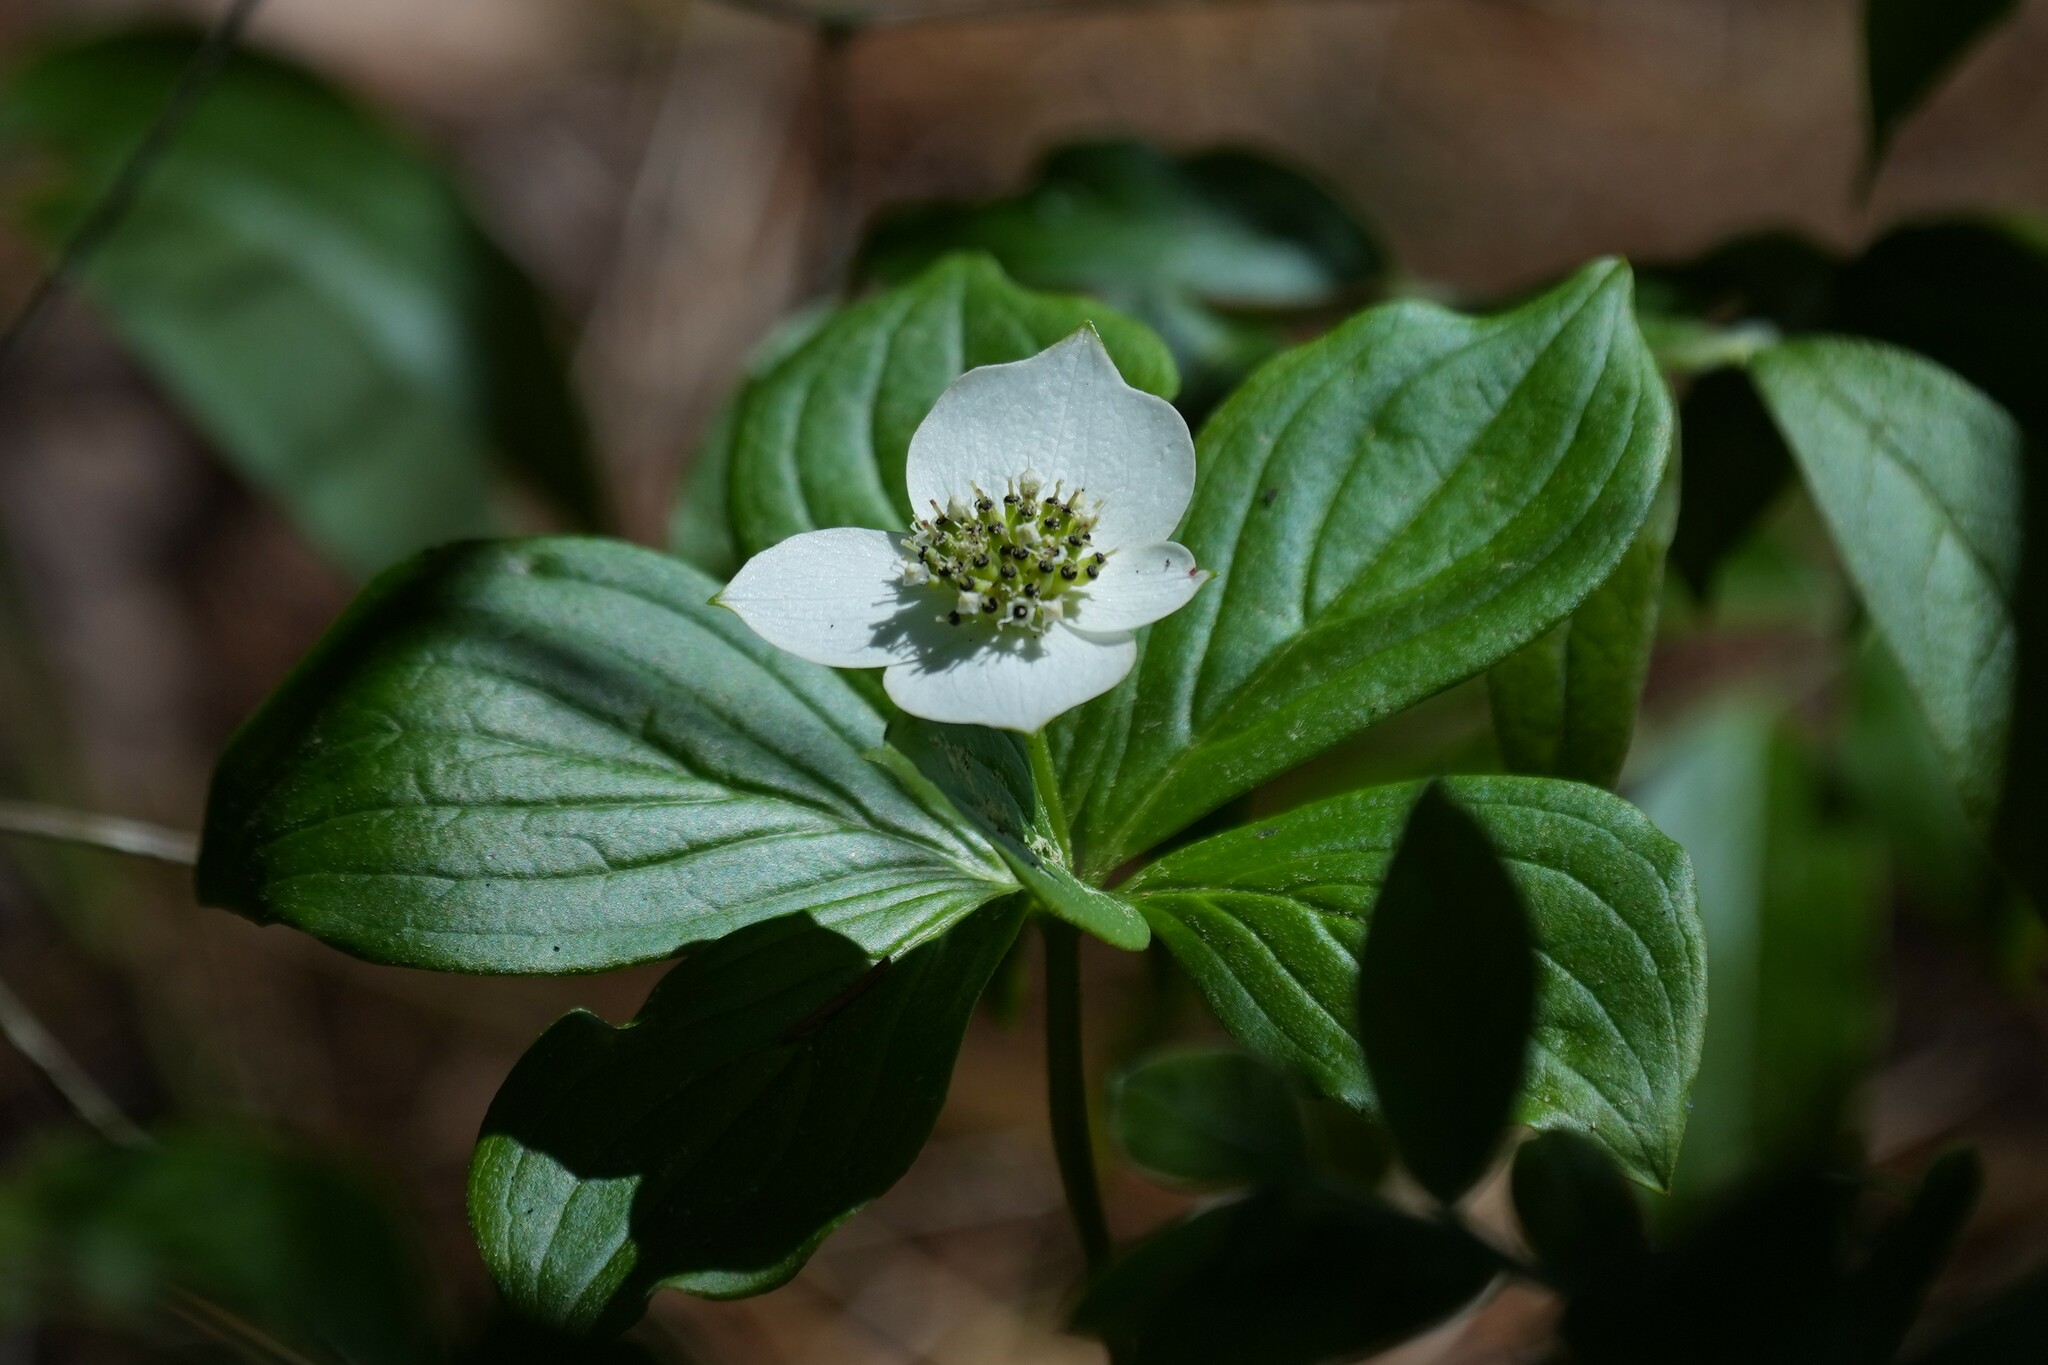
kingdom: Plantae
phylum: Tracheophyta
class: Magnoliopsida
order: Cornales
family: Cornaceae
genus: Cornus
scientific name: Cornus canadensis
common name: Creeping dogwood
